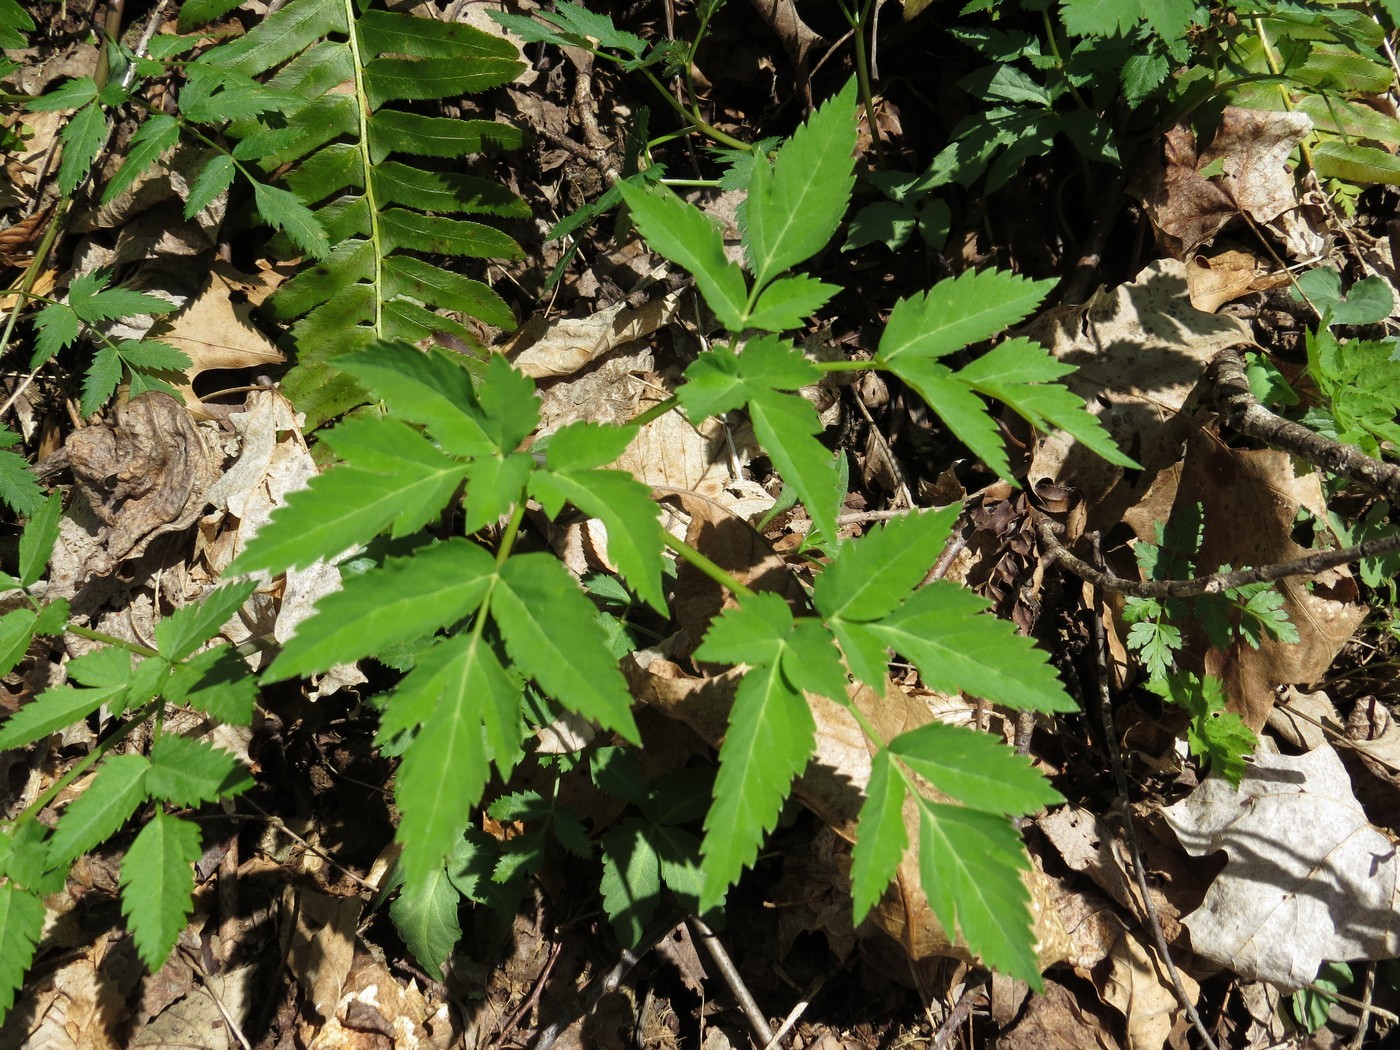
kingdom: Plantae
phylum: Tracheophyta
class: Magnoliopsida
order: Apiales
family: Apiaceae
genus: Angelica
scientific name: Angelica triquinata
